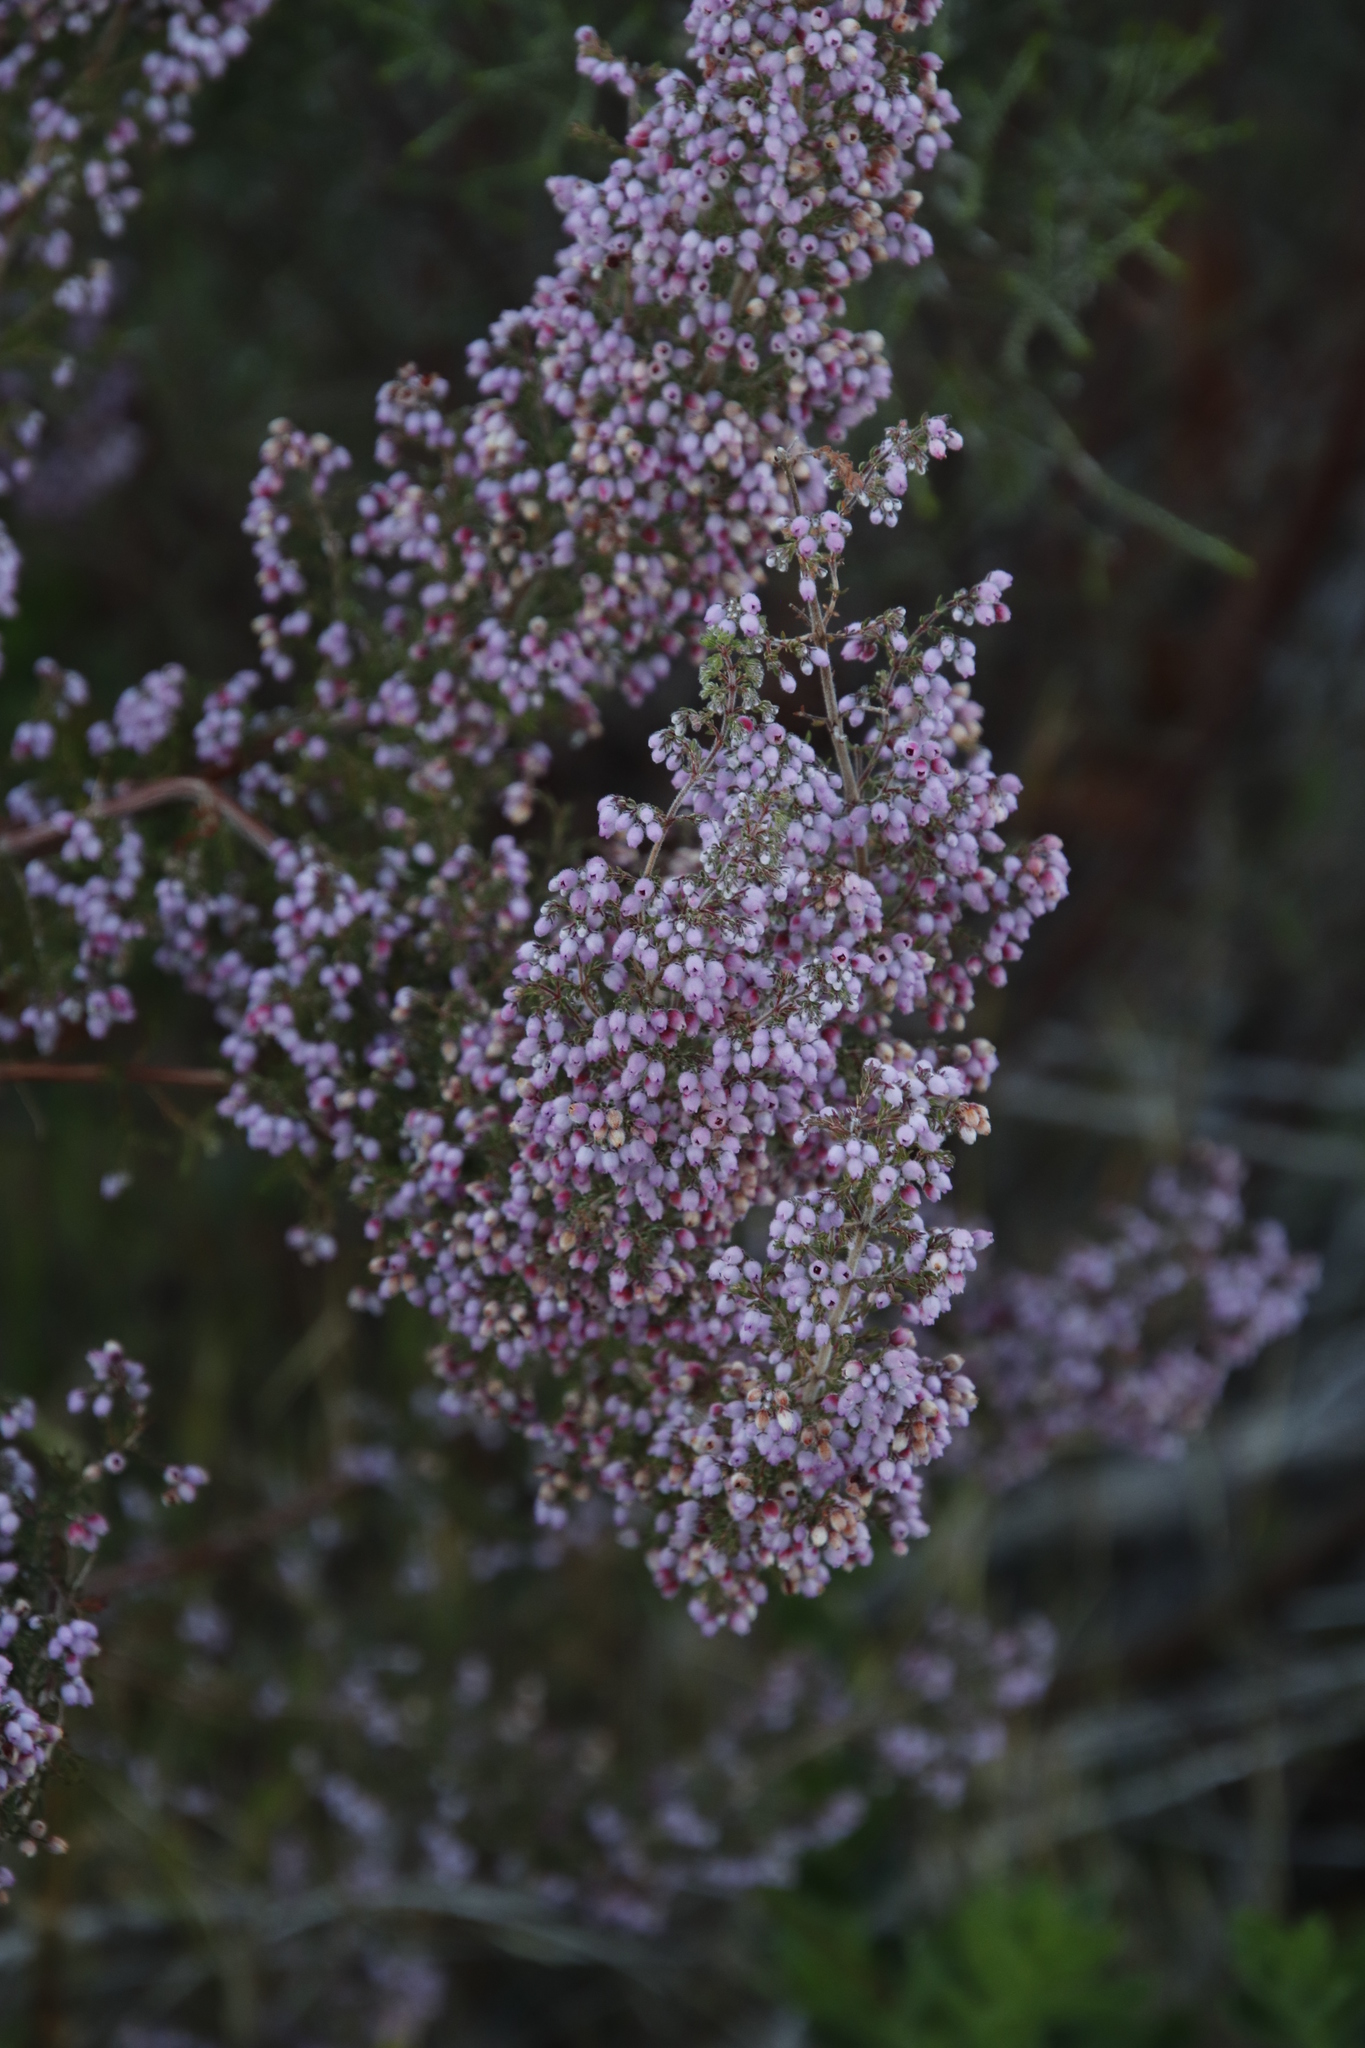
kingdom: Plantae
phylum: Tracheophyta
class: Magnoliopsida
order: Ericales
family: Ericaceae
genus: Erica
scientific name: Erica hirtiflora
